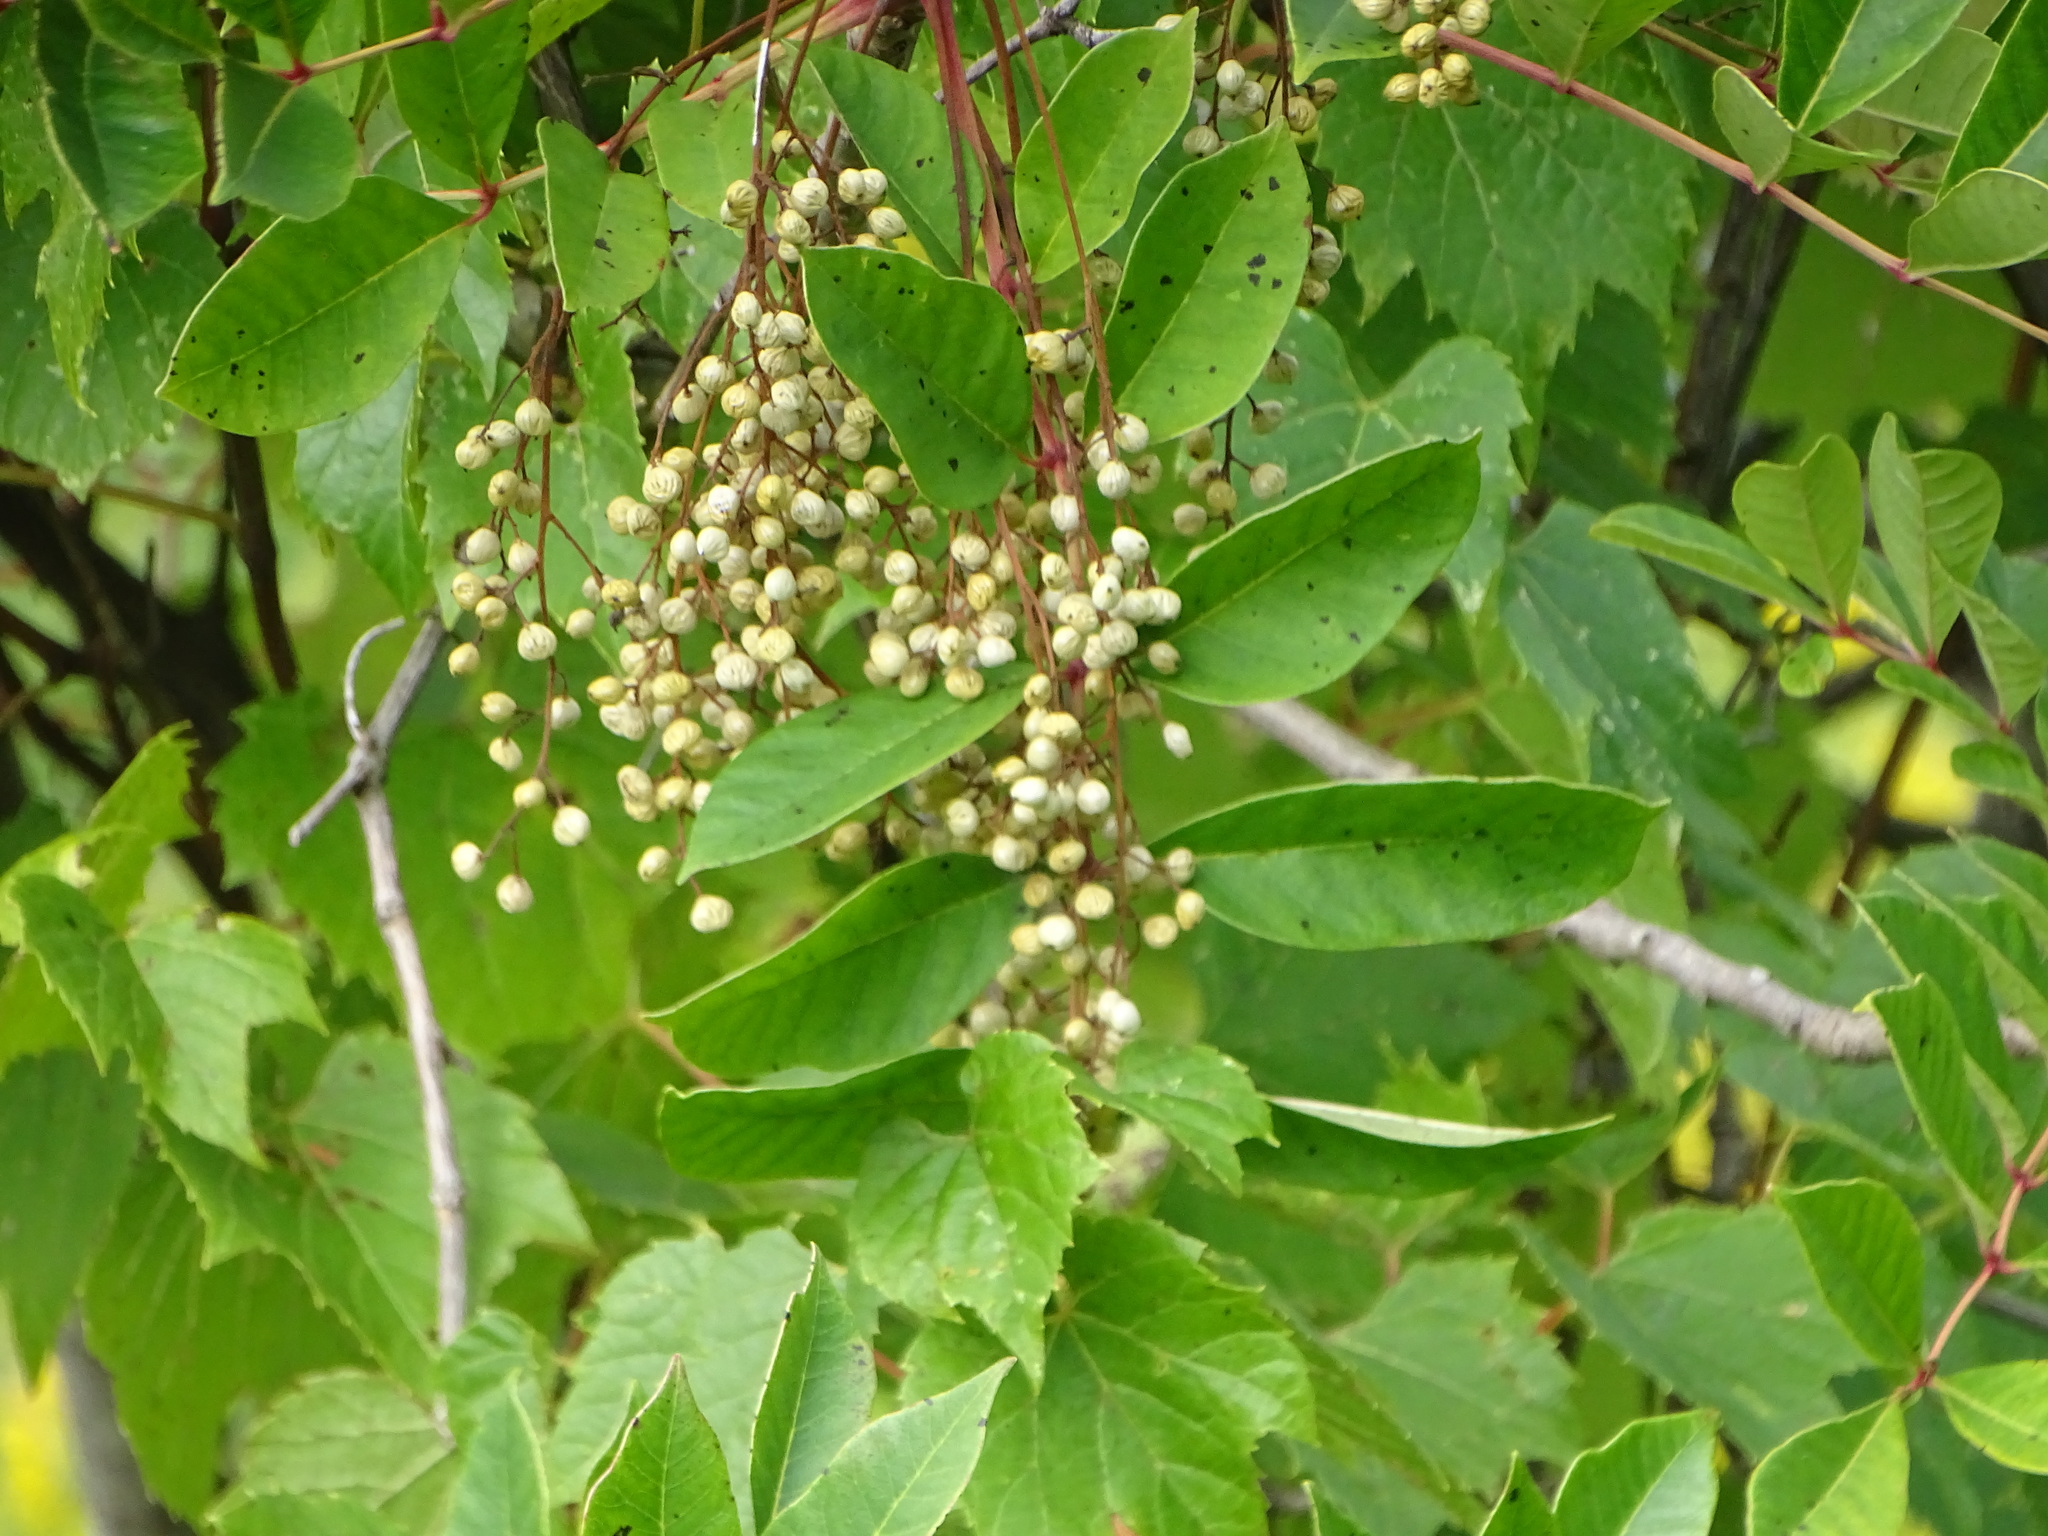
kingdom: Plantae
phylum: Tracheophyta
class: Magnoliopsida
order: Sapindales
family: Anacardiaceae
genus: Toxicodendron
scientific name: Toxicodendron vernix
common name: Poison sumac
